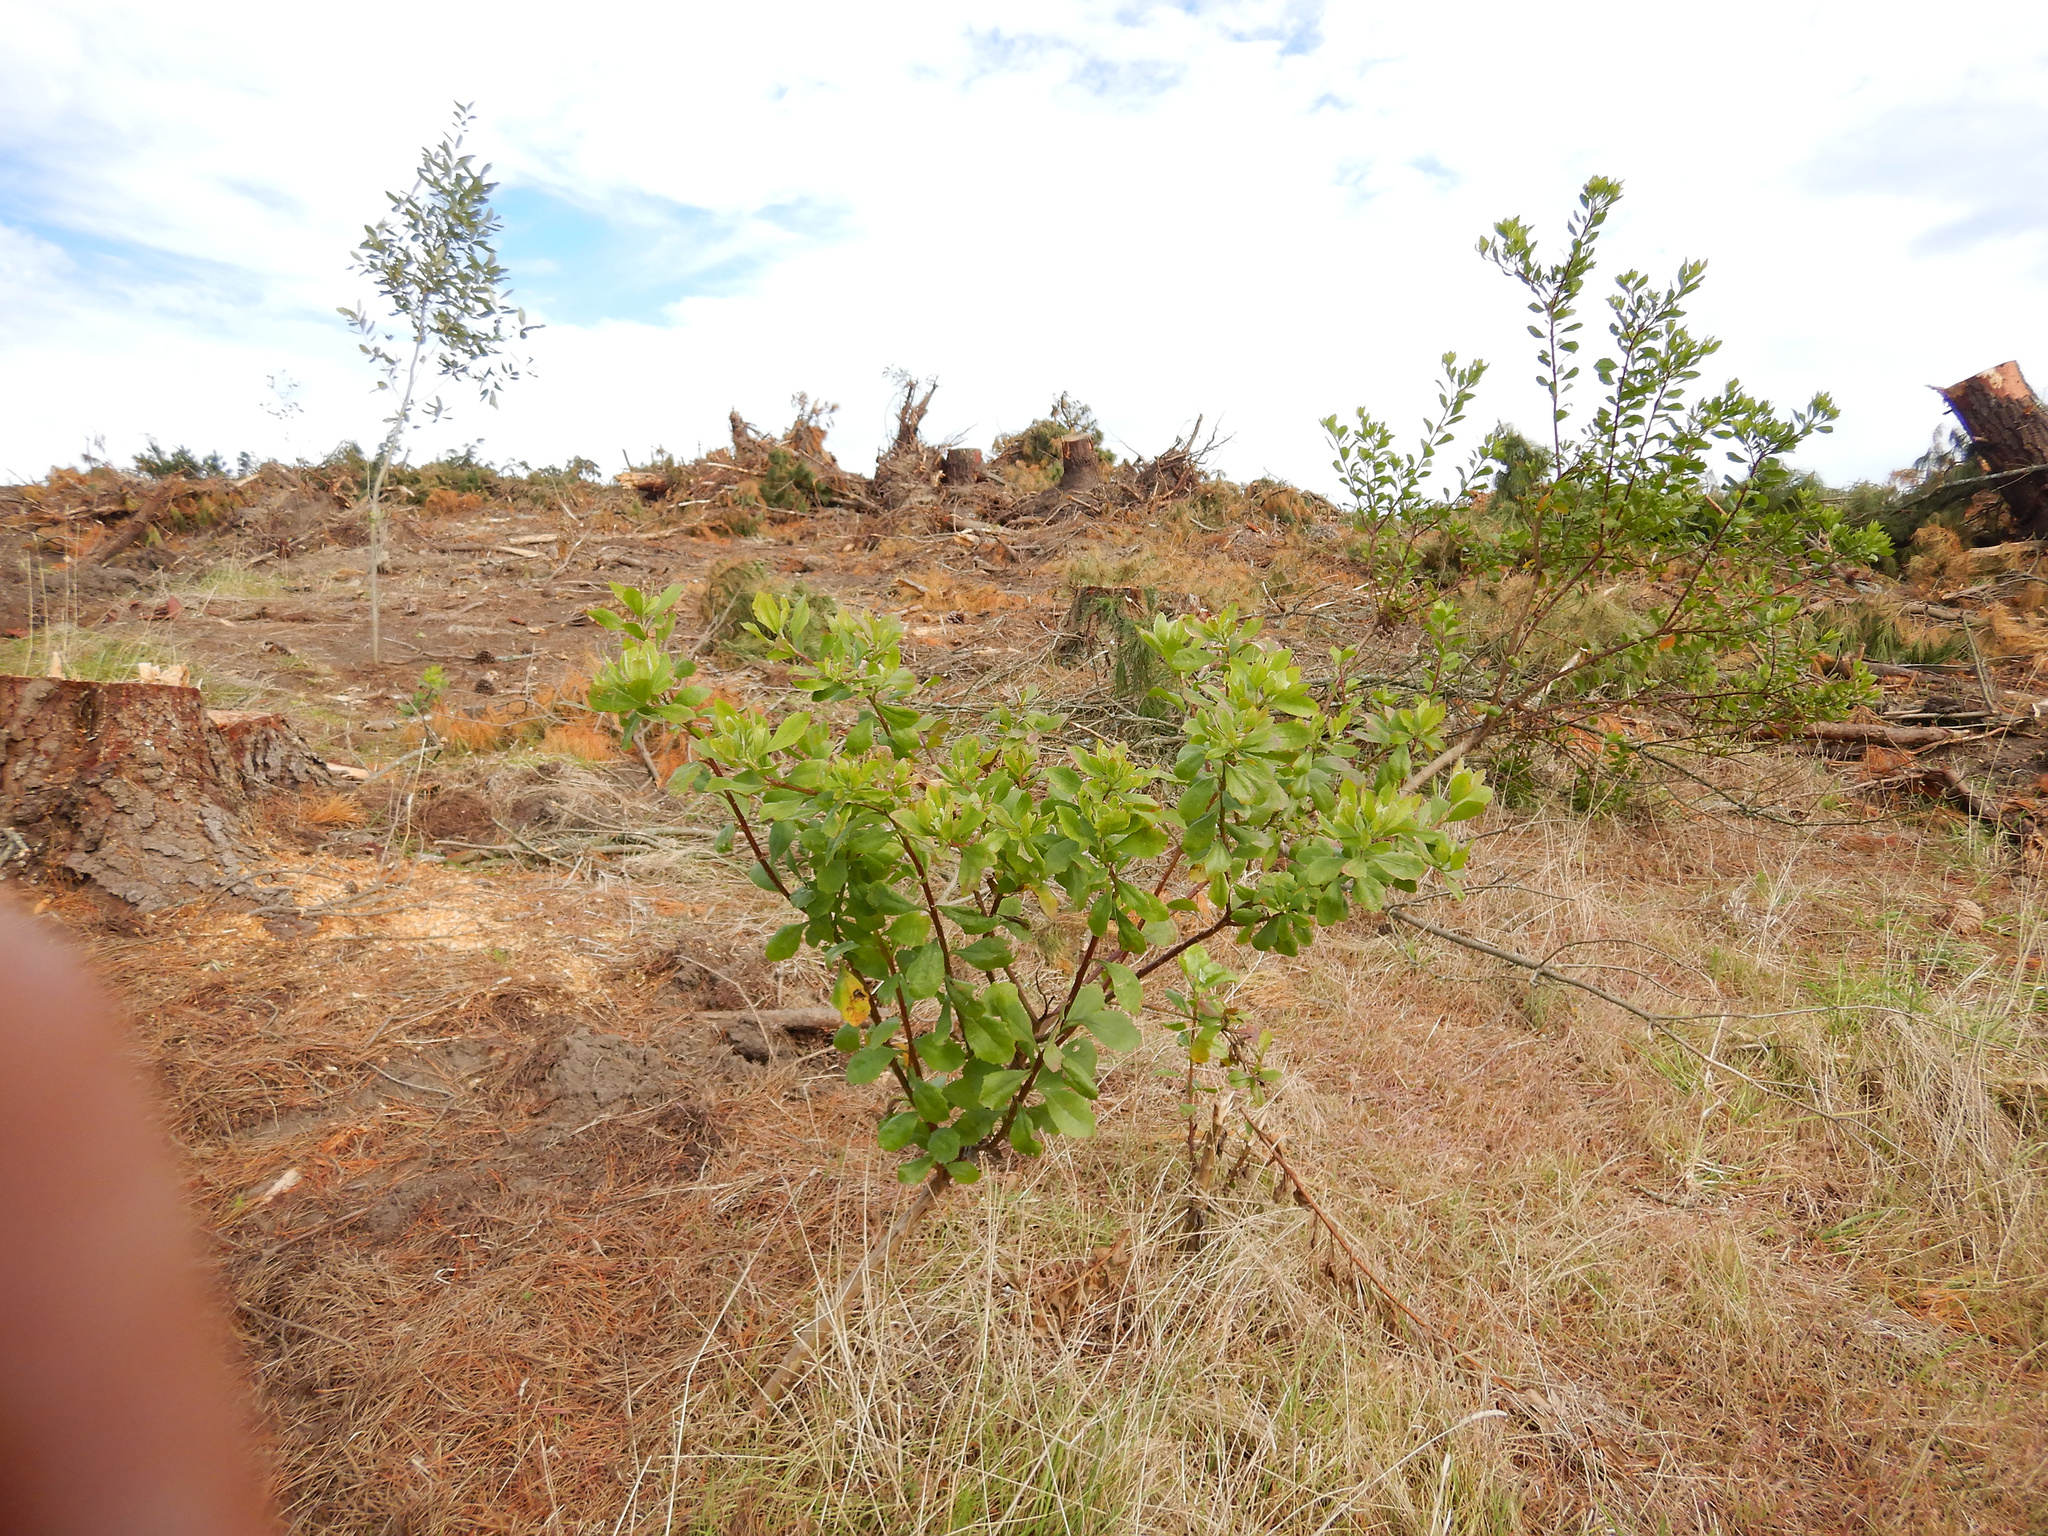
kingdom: Plantae
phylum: Tracheophyta
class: Magnoliopsida
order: Asterales
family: Asteraceae
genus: Osteospermum
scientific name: Osteospermum moniliferum
